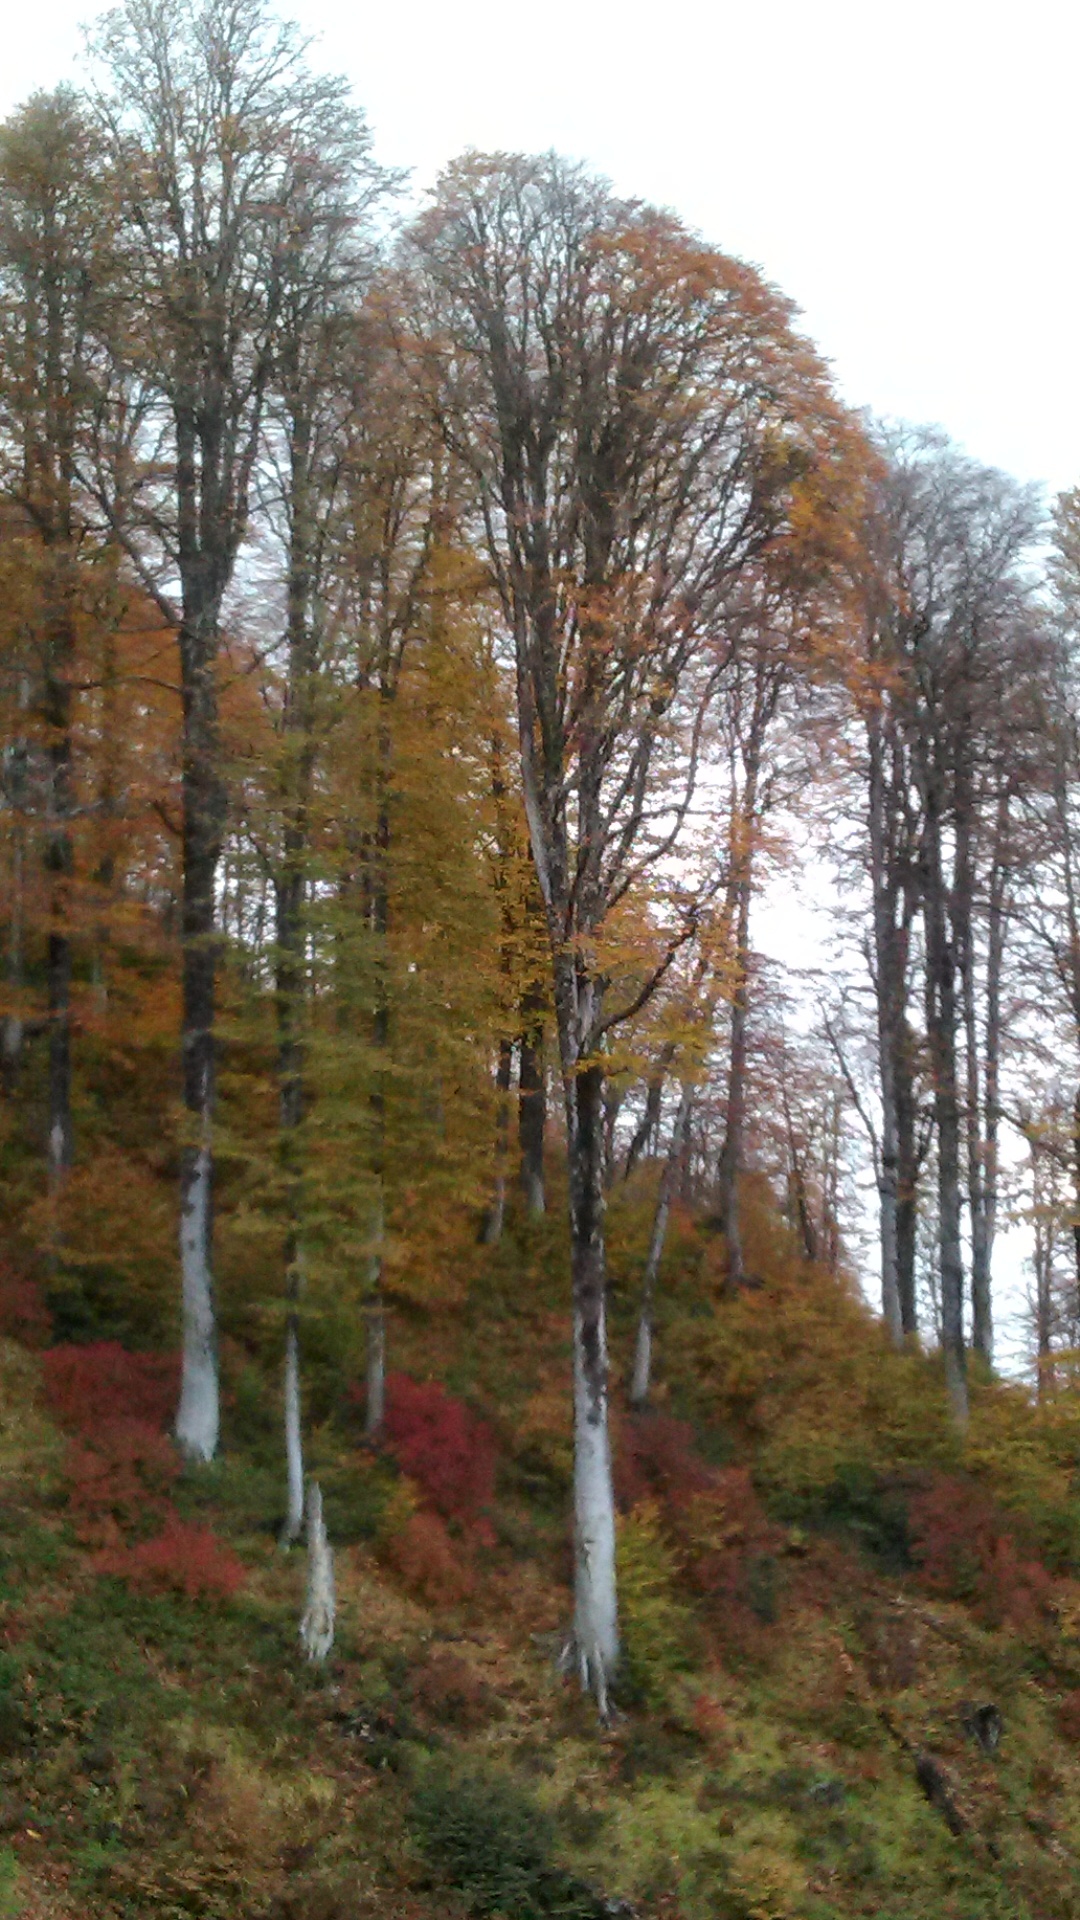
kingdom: Plantae
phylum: Tracheophyta
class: Magnoliopsida
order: Fagales
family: Fagaceae
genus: Fagus
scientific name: Fagus orientalis
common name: Oriental beech
